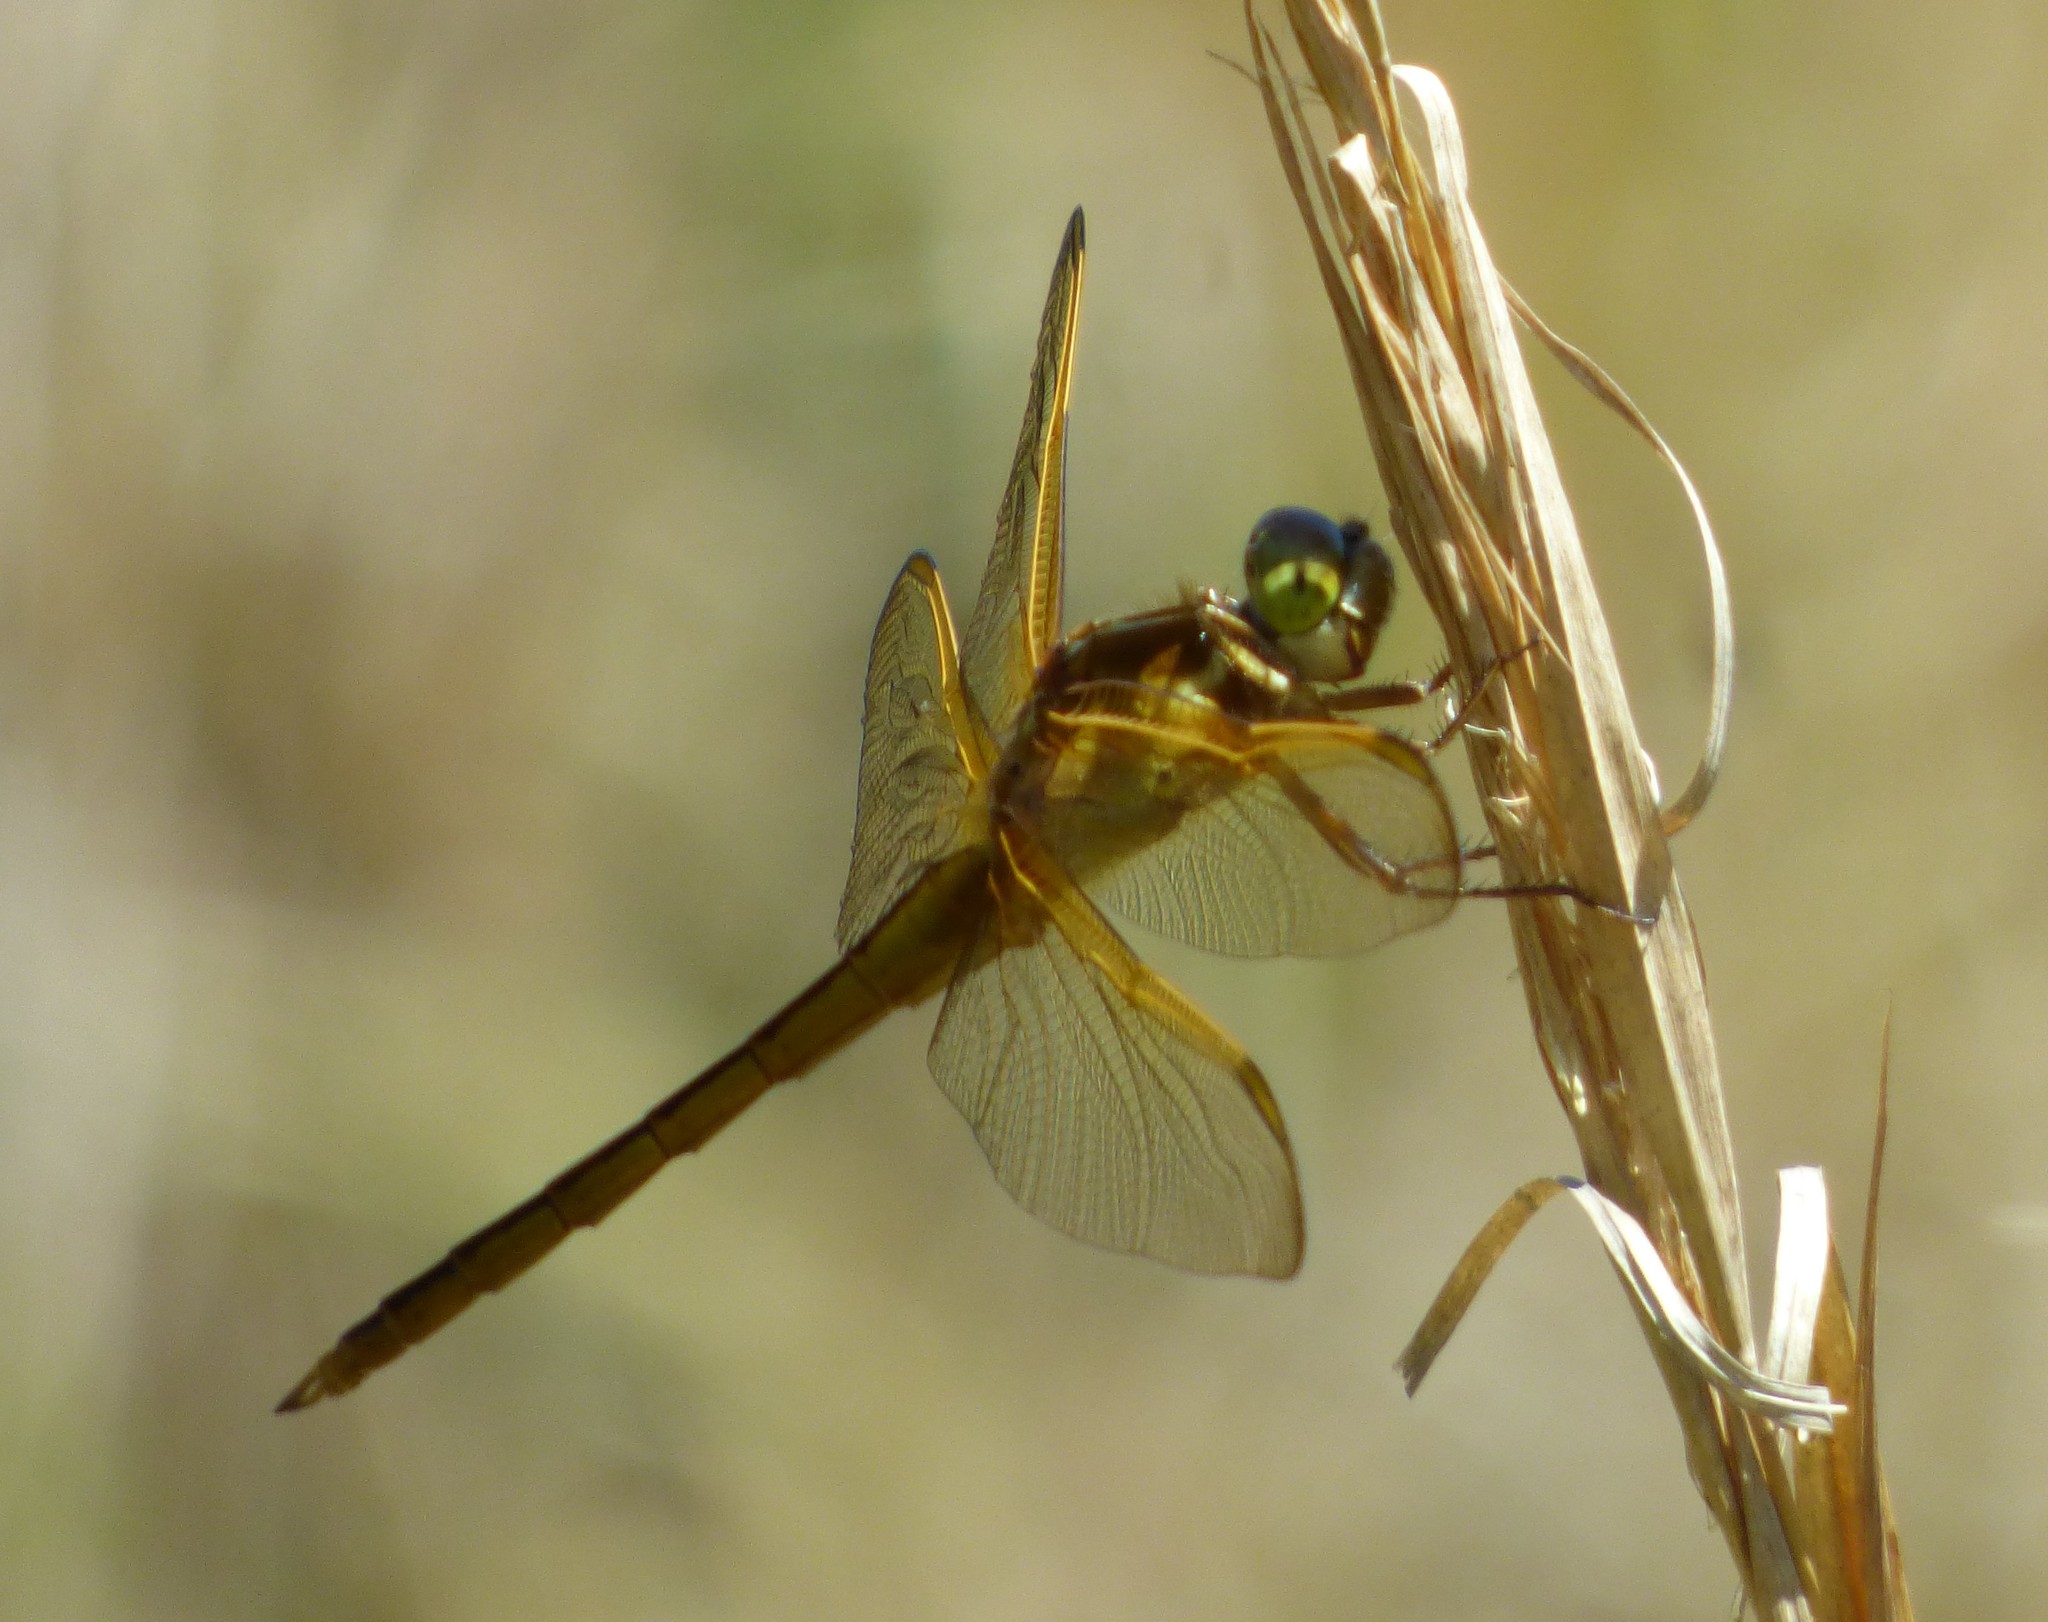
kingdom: Animalia
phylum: Arthropoda
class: Insecta
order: Odonata
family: Libellulidae
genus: Libellula
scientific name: Libellula needhami
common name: Needham's skimmer
